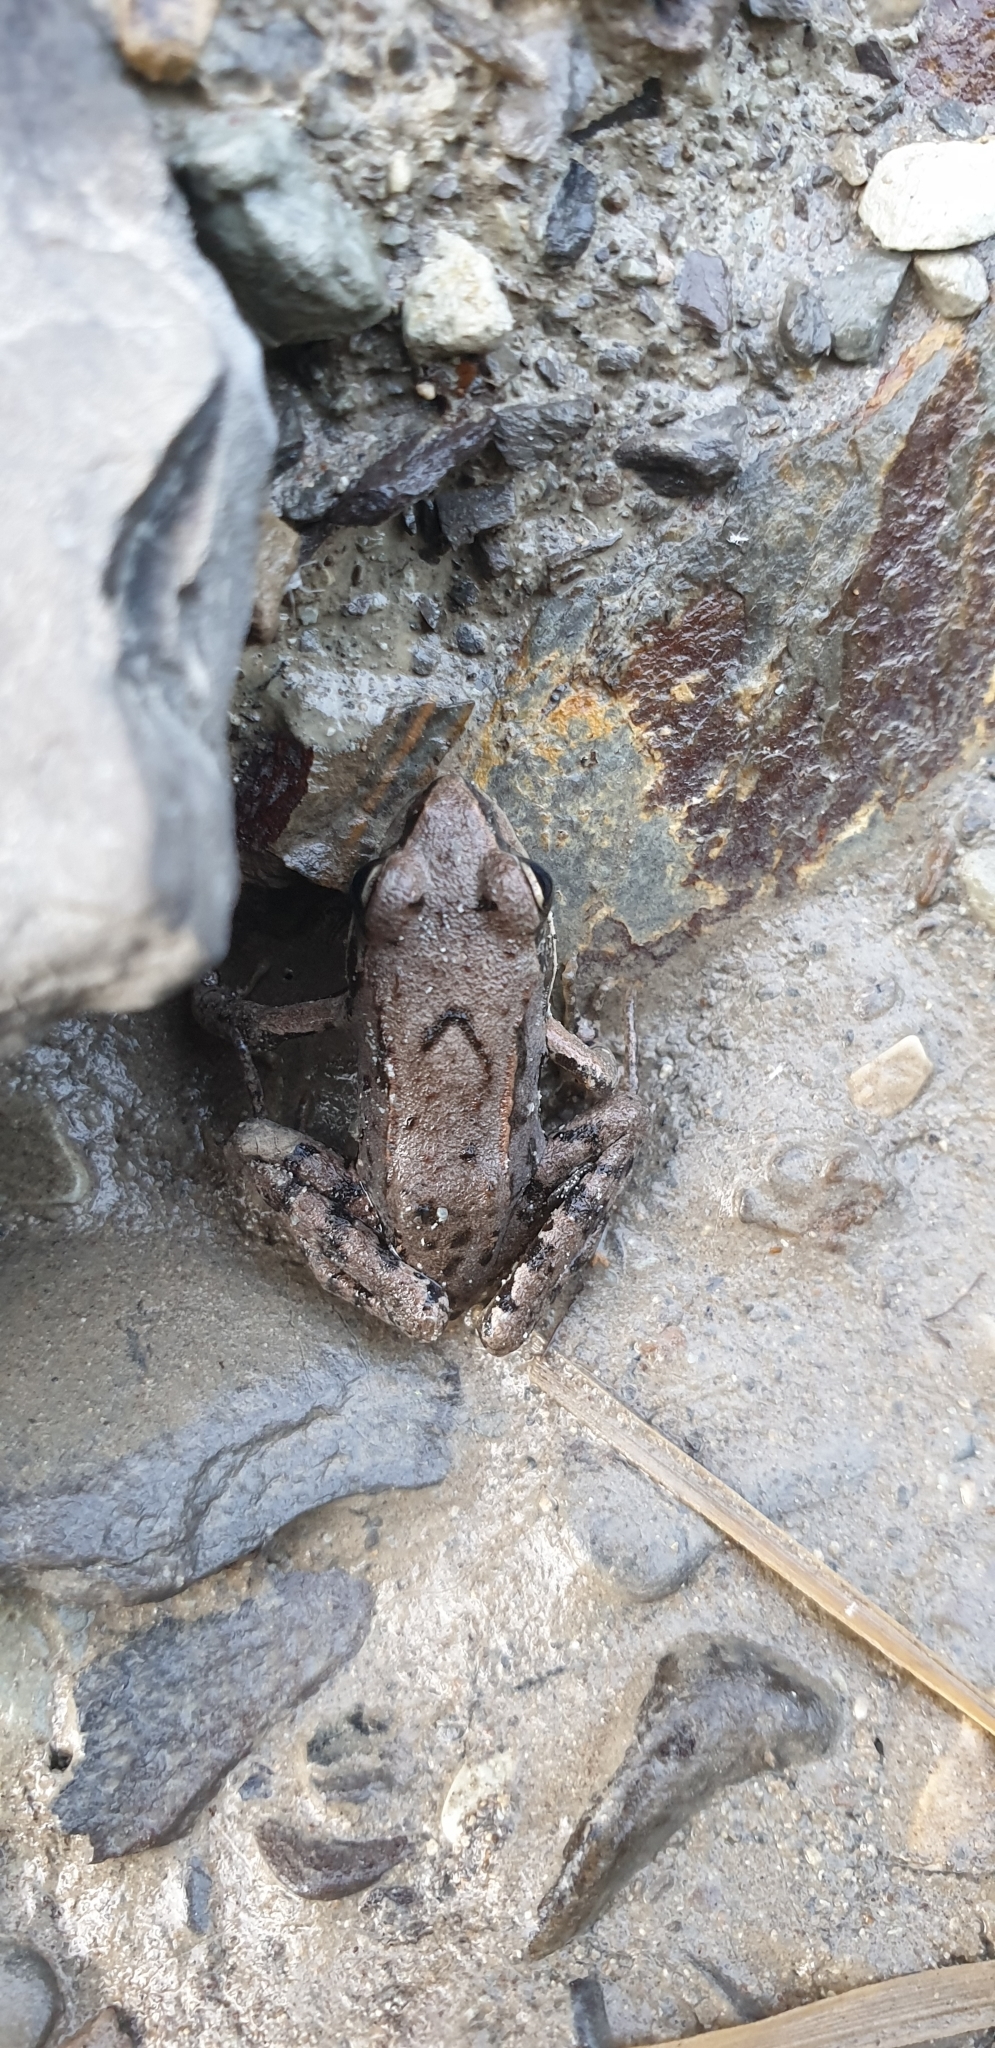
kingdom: Animalia
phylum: Chordata
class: Amphibia
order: Anura
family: Ranidae
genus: Pelophylax
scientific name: Pelophylax ridibundus
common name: Marsh frog
